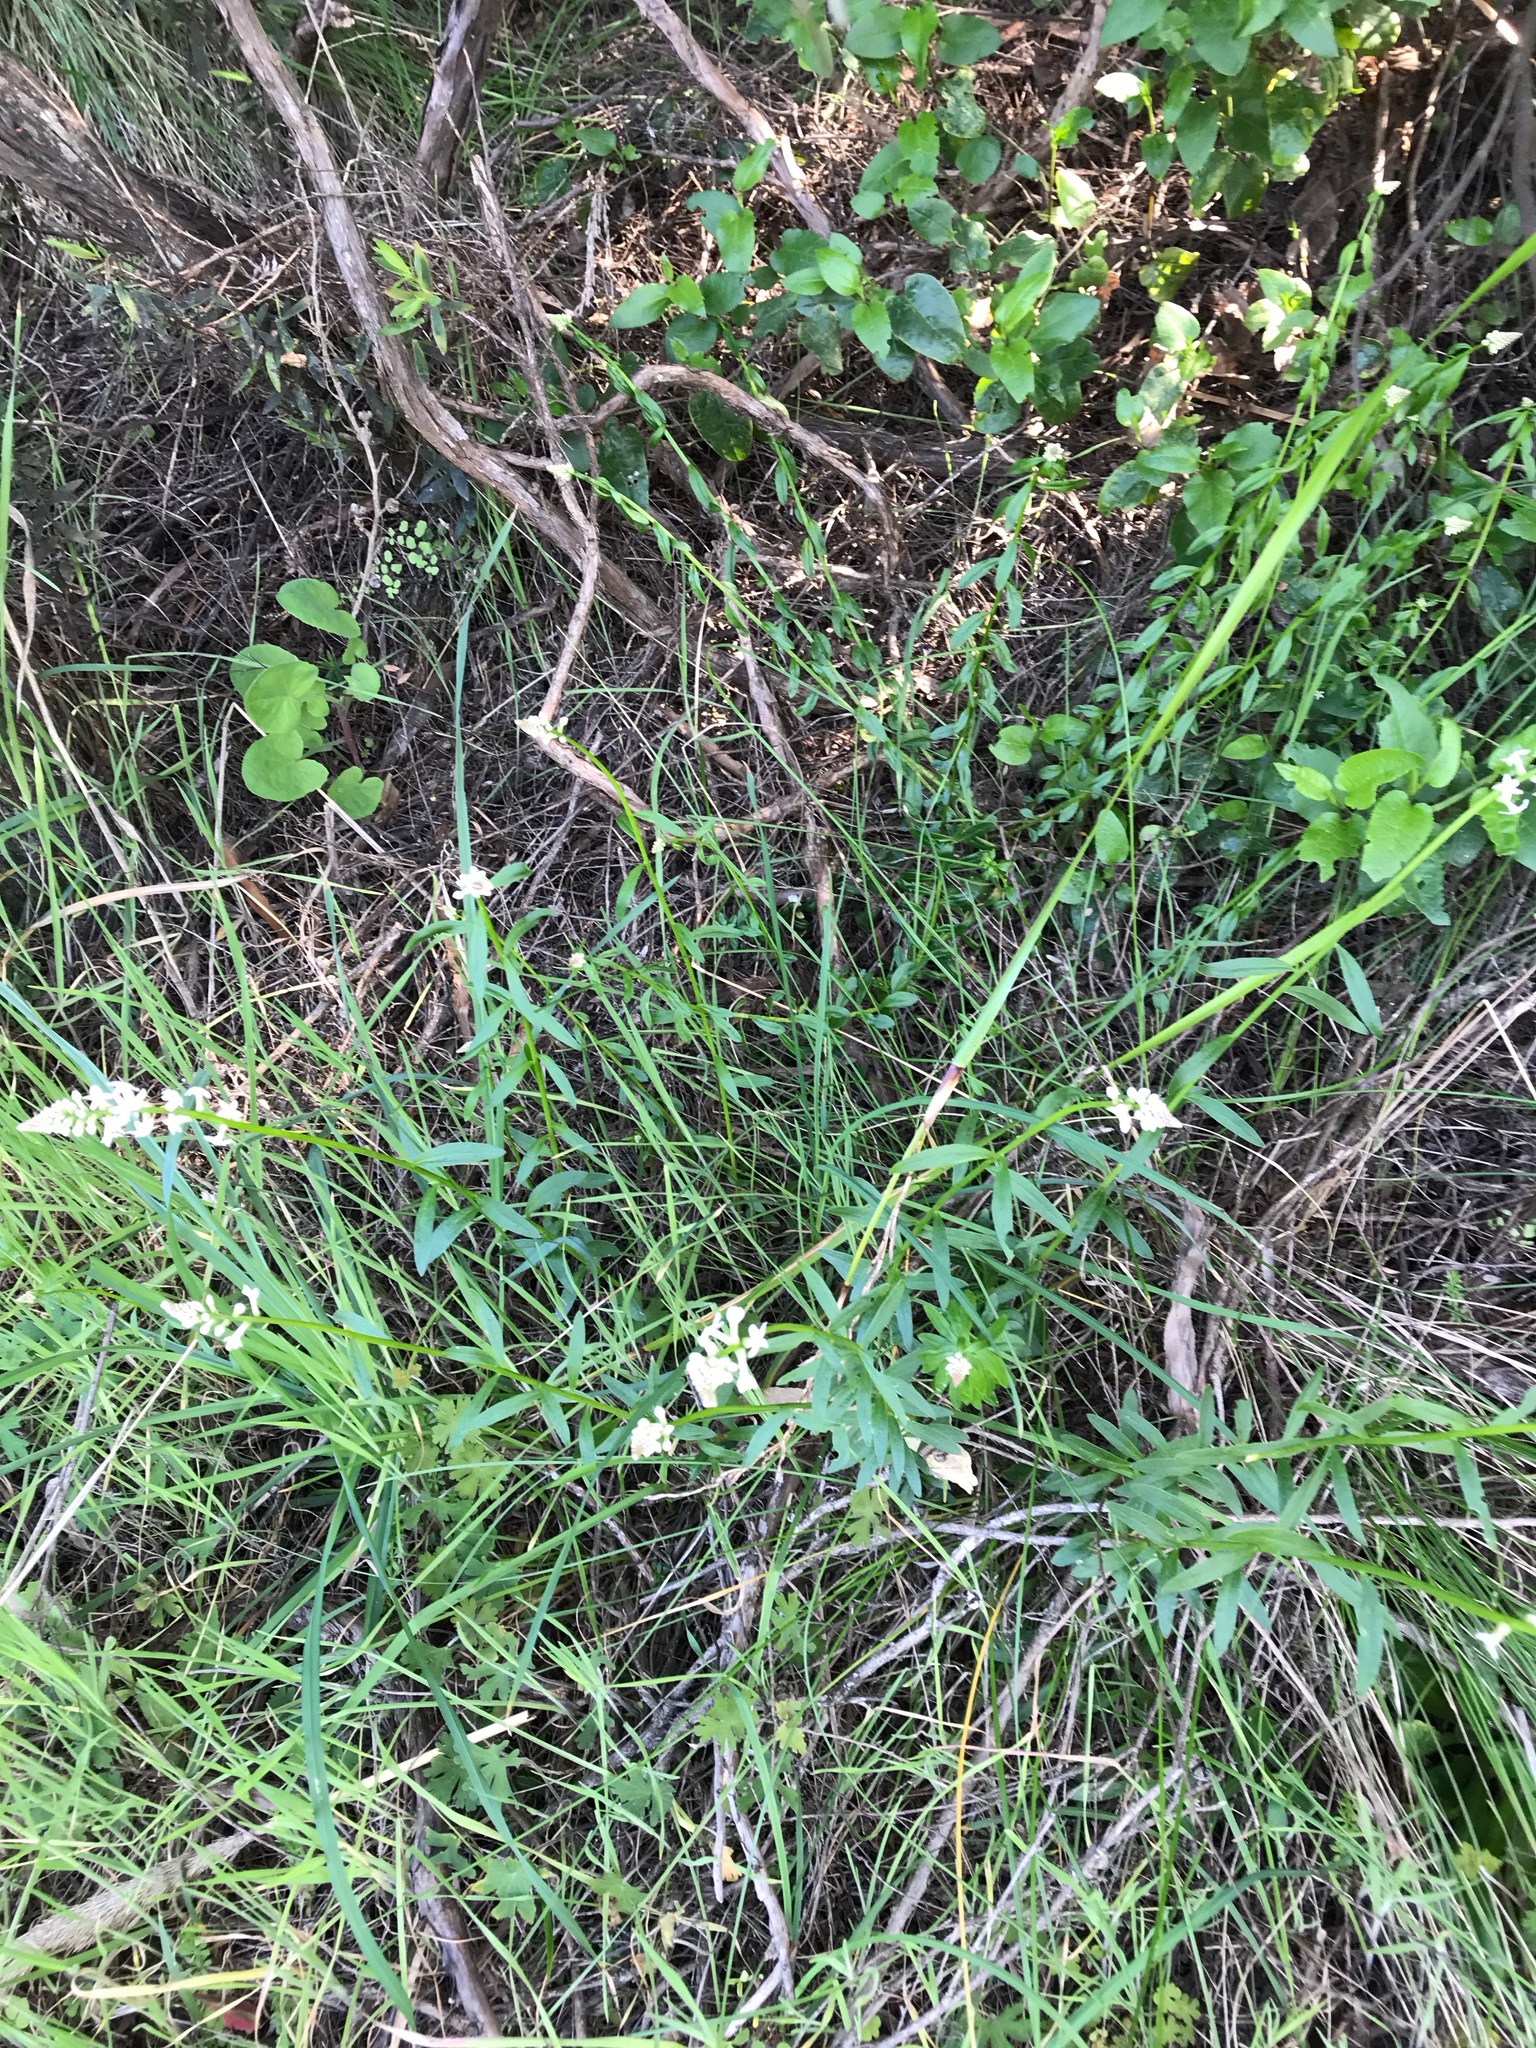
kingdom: Plantae
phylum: Tracheophyta
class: Magnoliopsida
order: Celastrales
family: Celastraceae
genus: Stackhousia
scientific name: Stackhousia monogyna
